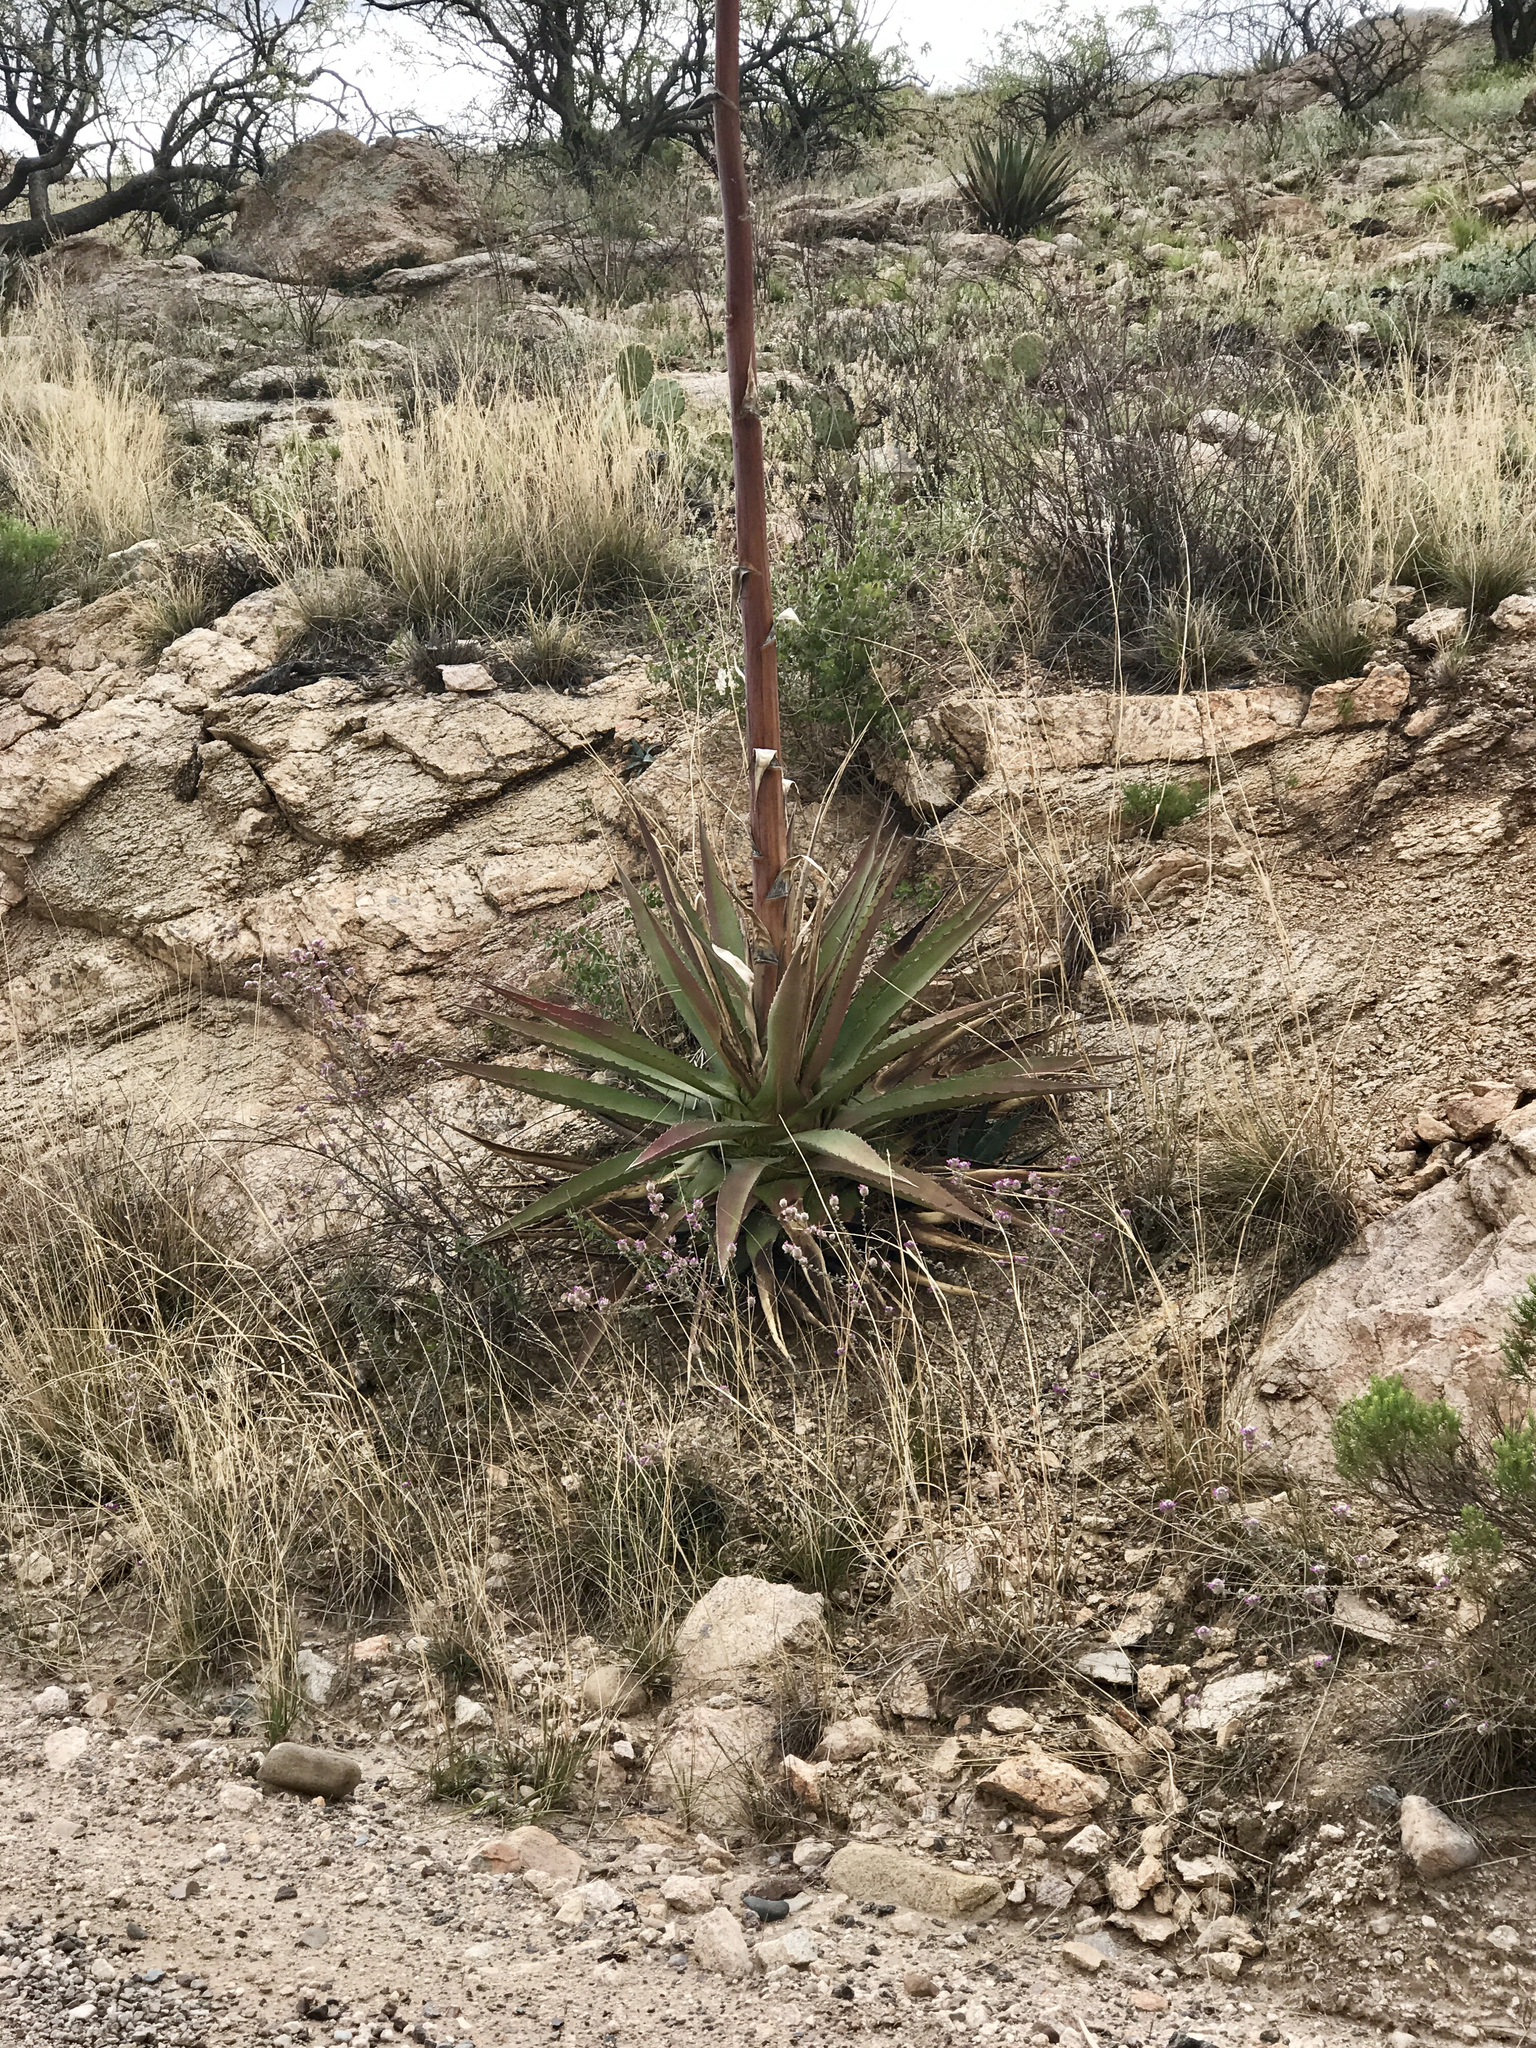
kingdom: Plantae
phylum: Tracheophyta
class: Liliopsida
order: Asparagales
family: Asparagaceae
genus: Agave
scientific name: Agave palmeri
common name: Palmer agave
